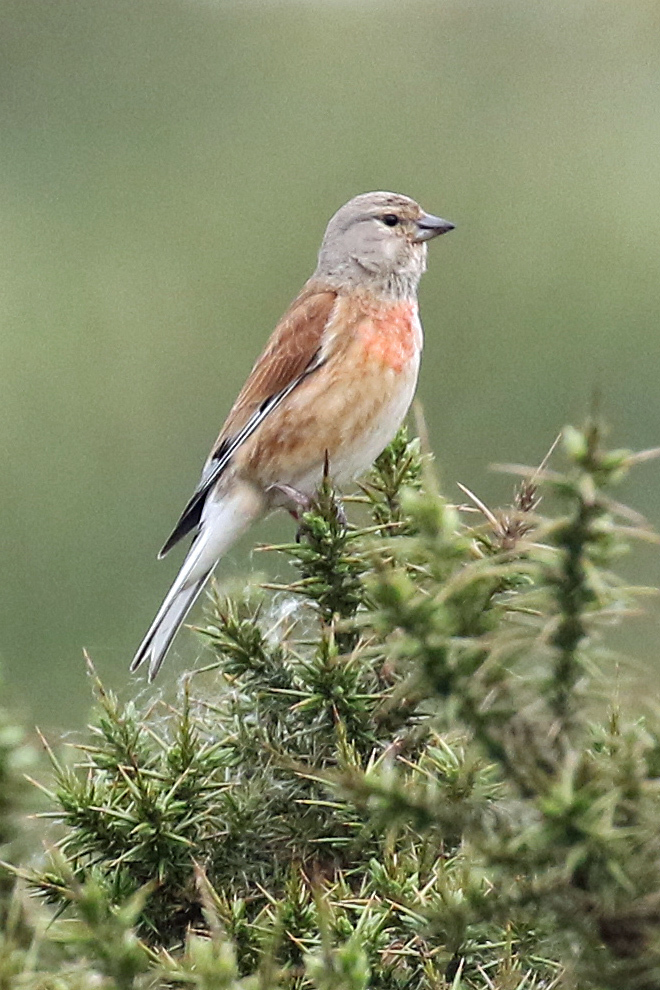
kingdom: Animalia
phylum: Chordata
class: Aves
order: Passeriformes
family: Fringillidae
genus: Linaria
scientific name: Linaria cannabina
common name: Common linnet
